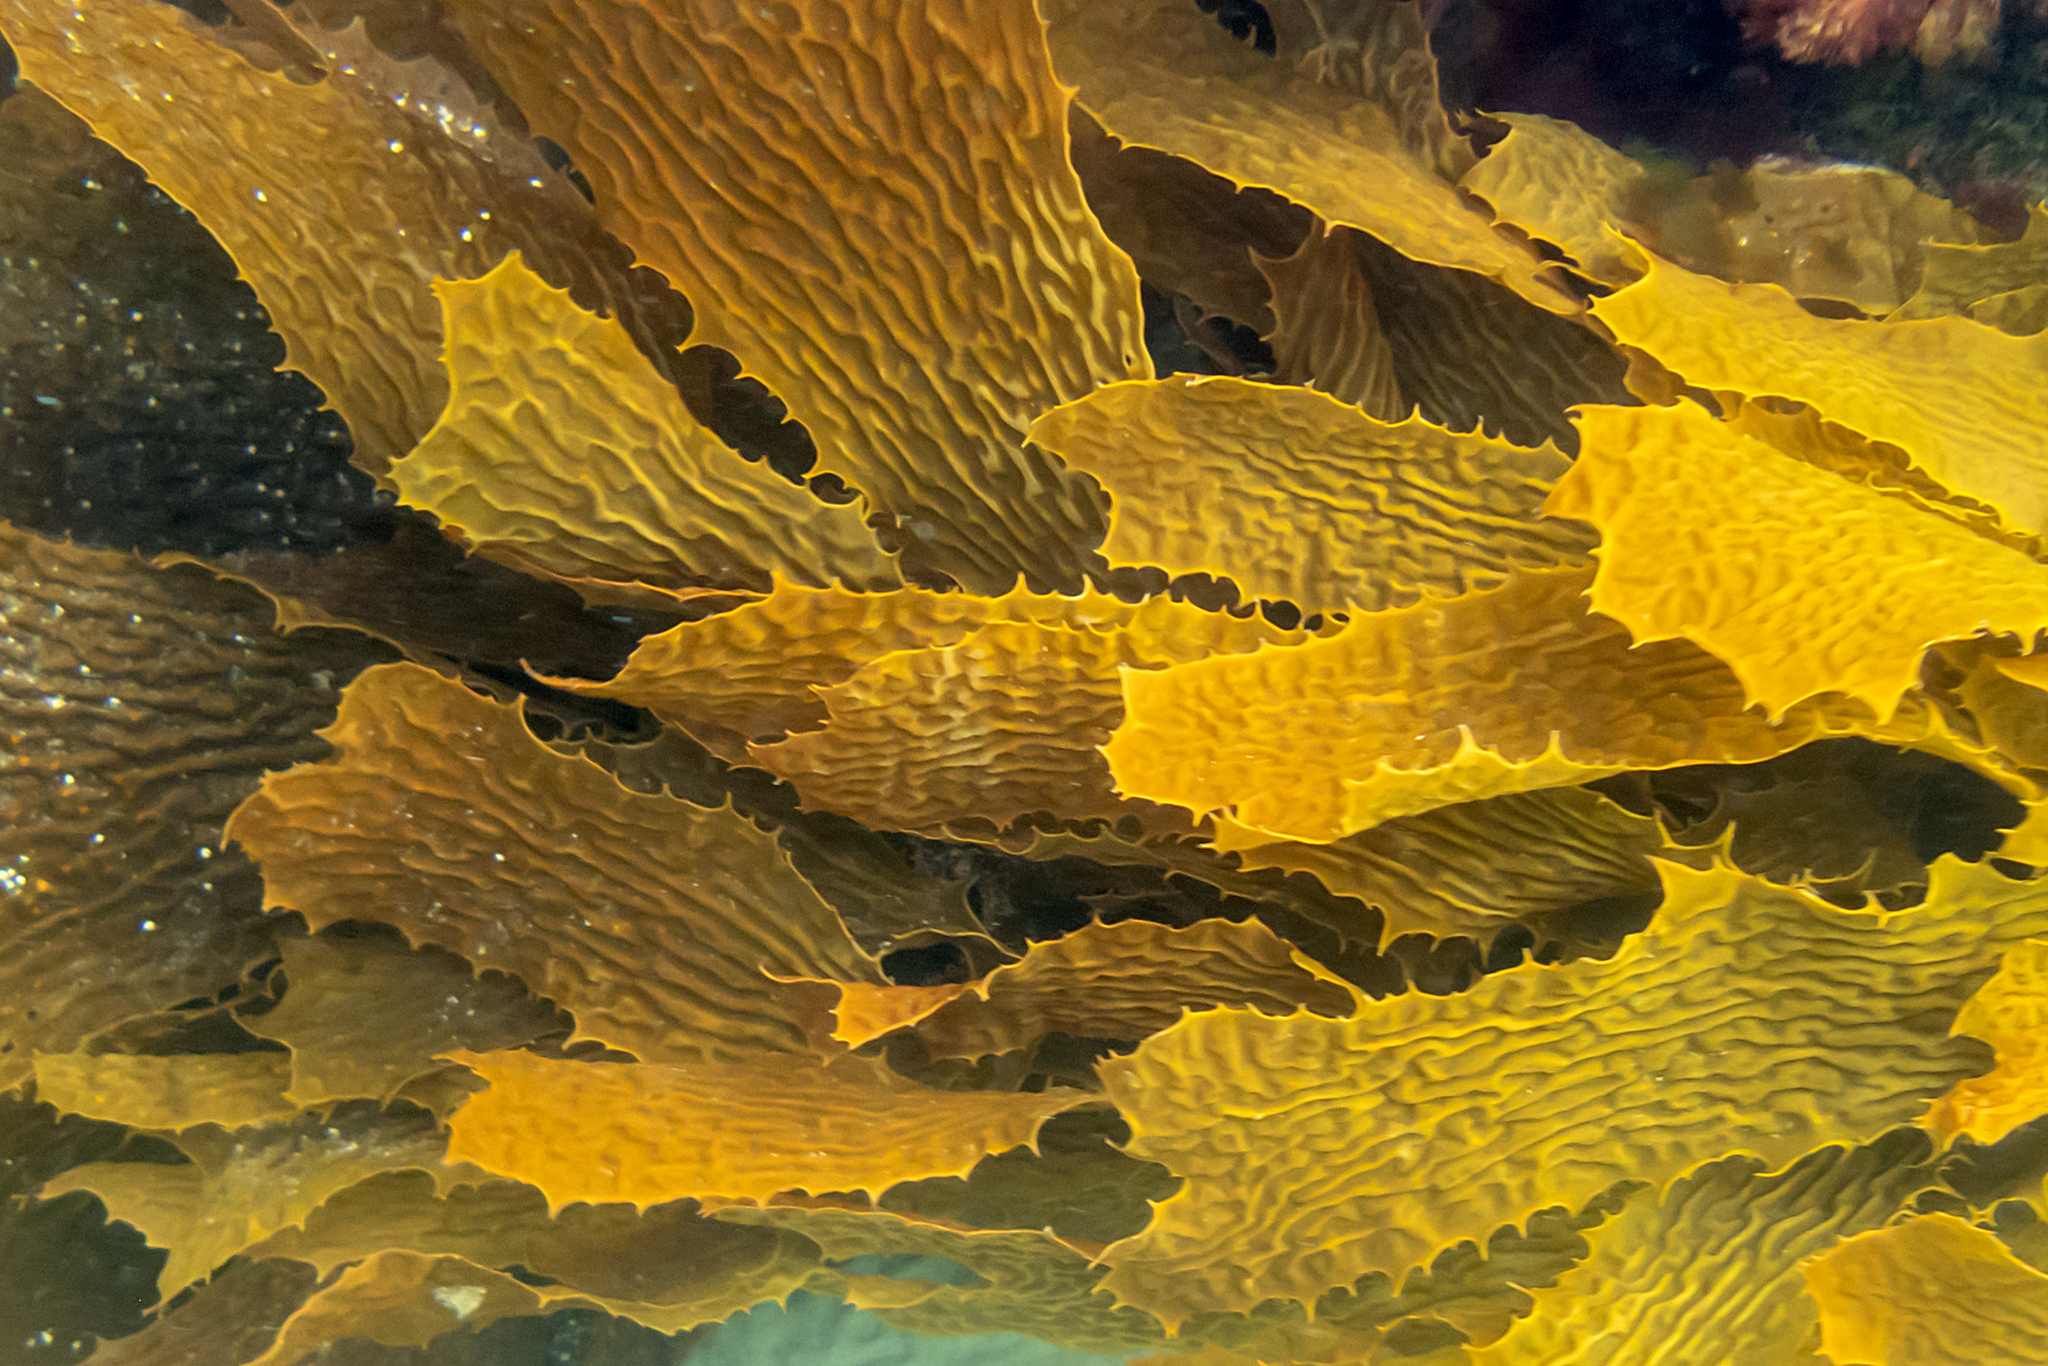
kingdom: Chromista
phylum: Ochrophyta
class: Phaeophyceae
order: Laminariales
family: Lessoniaceae
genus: Ecklonia
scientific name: Ecklonia radiata
